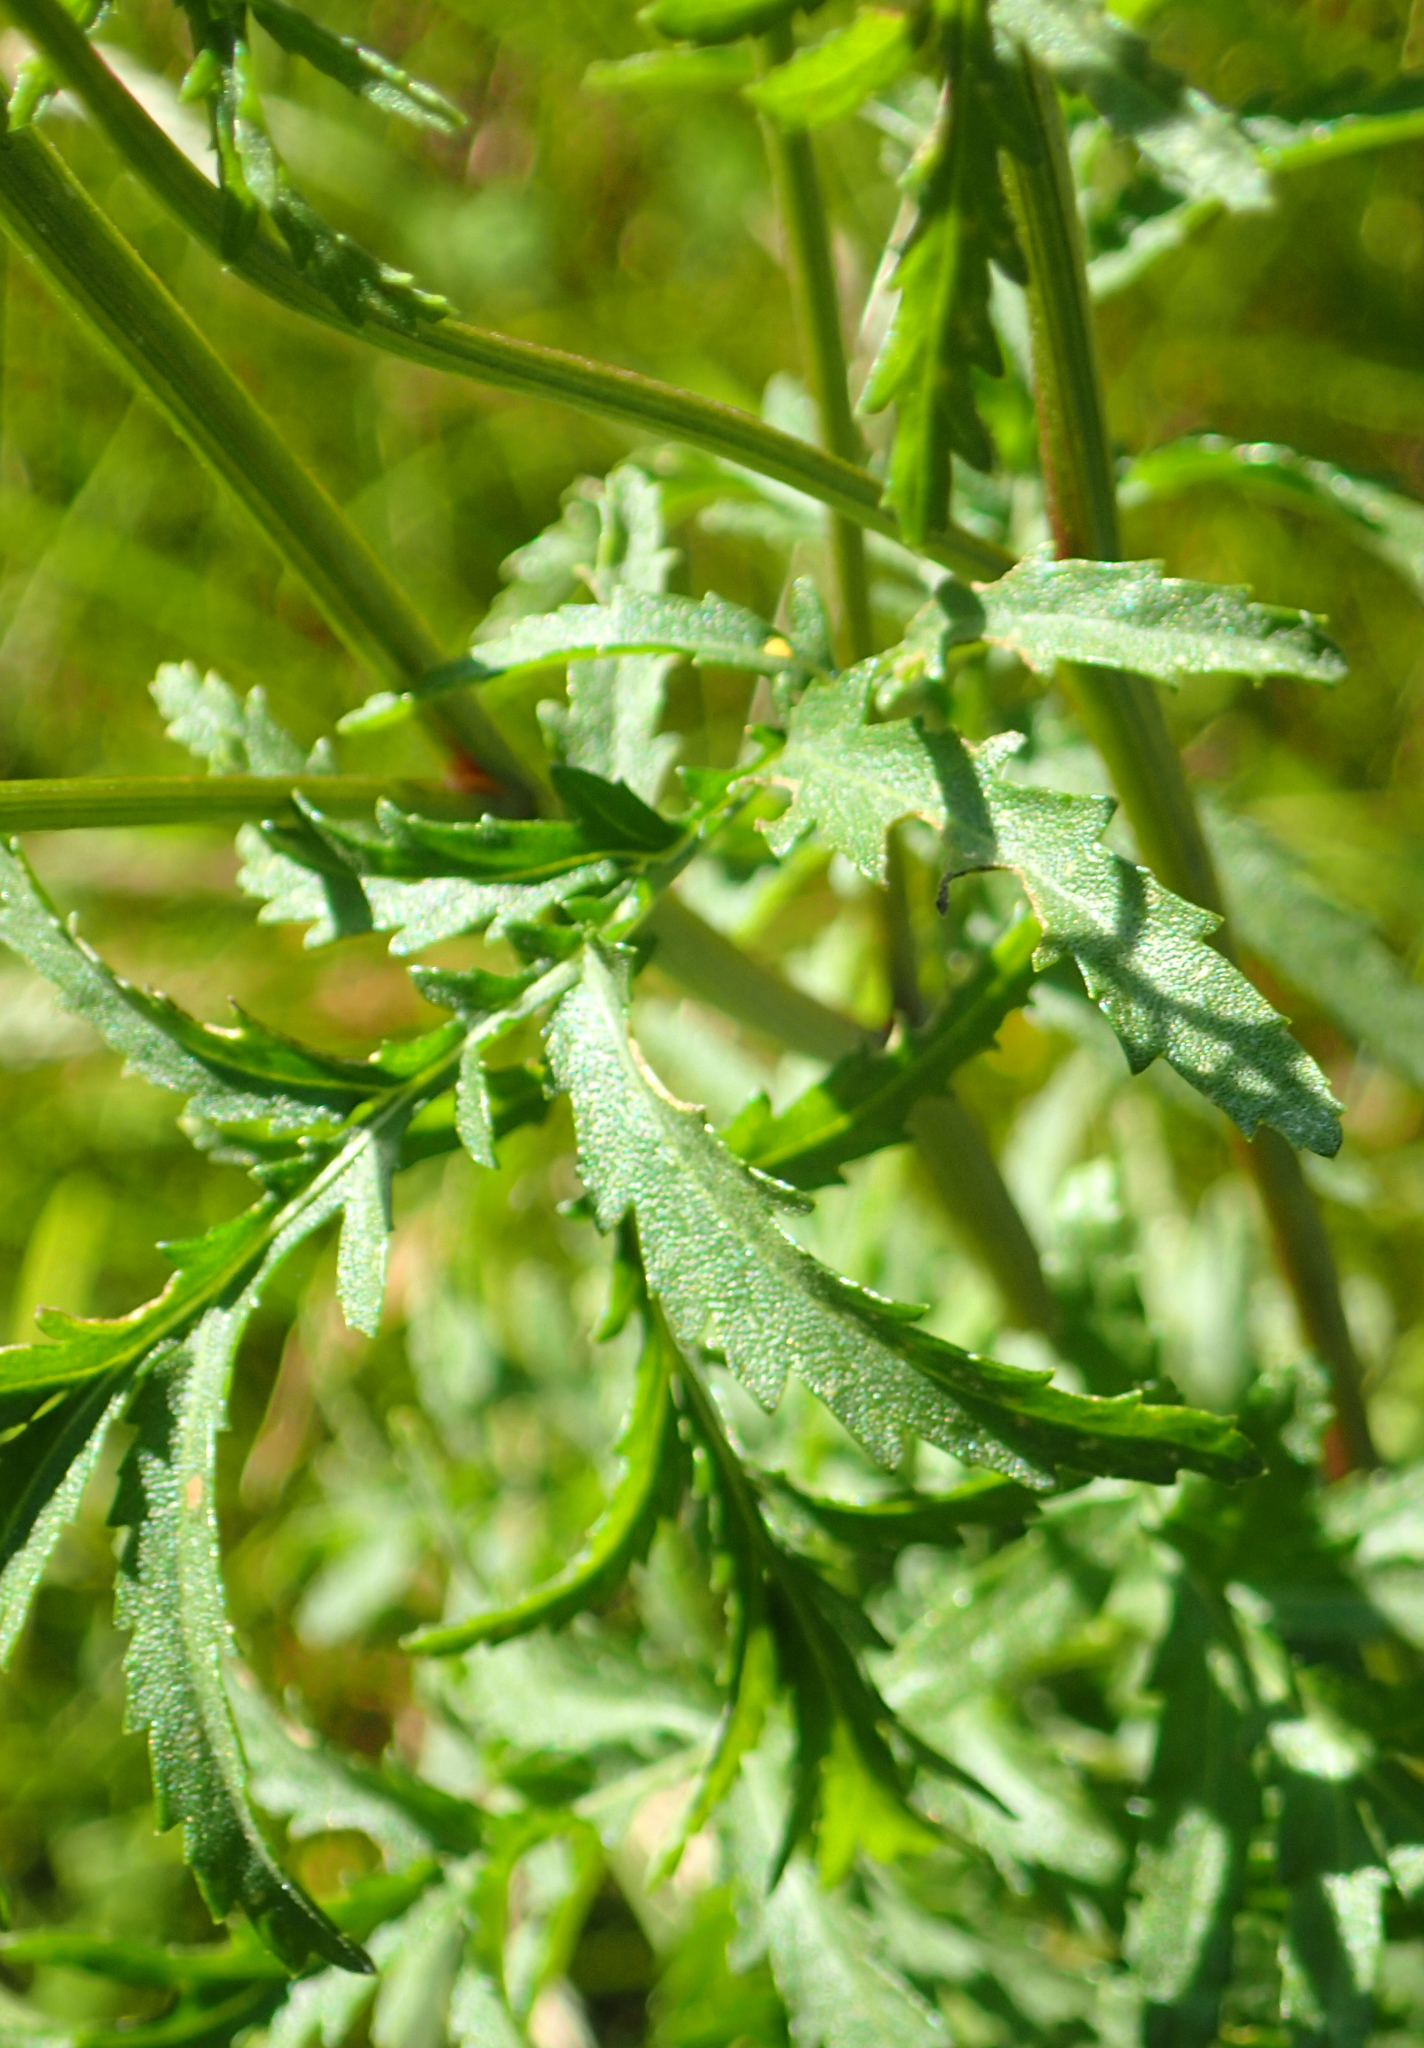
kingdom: Plantae
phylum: Tracheophyta
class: Magnoliopsida
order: Asterales
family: Asteraceae
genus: Tanacetum
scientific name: Tanacetum vulgare
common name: Common tansy
